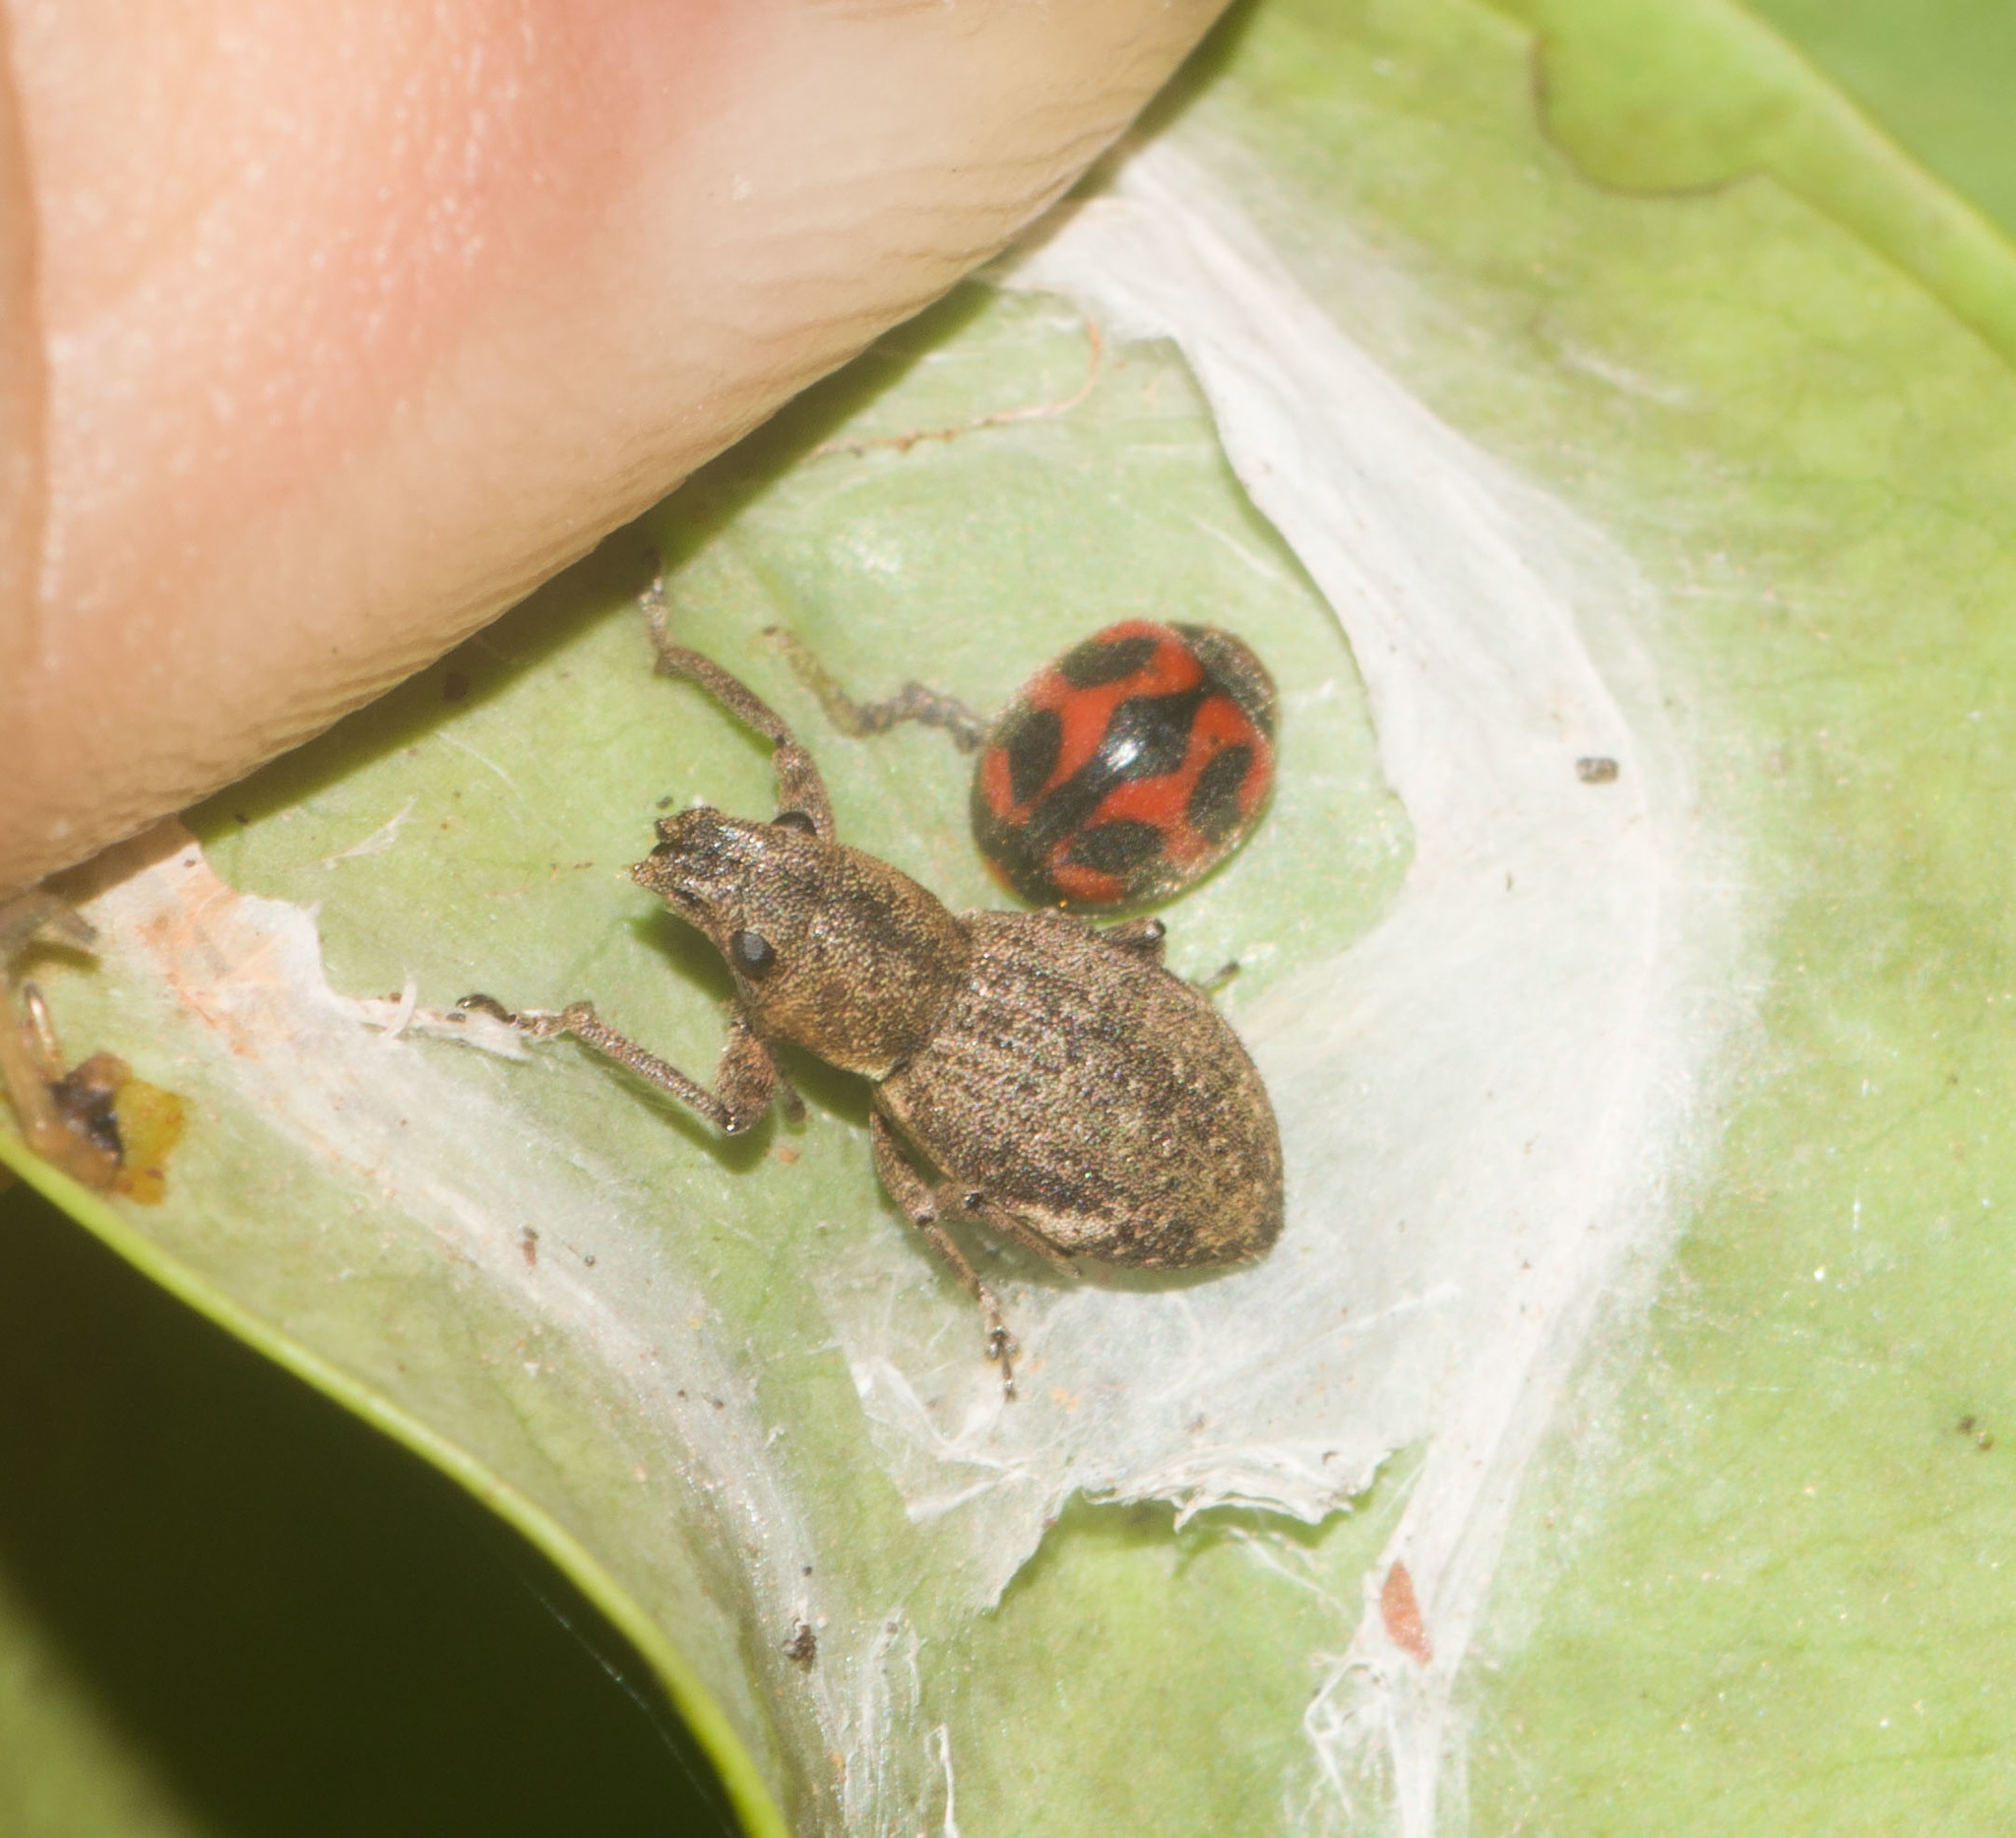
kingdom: Animalia
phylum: Arthropoda
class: Insecta
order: Coleoptera
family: Coccinellidae
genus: Novius
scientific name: Novius cardinalis
